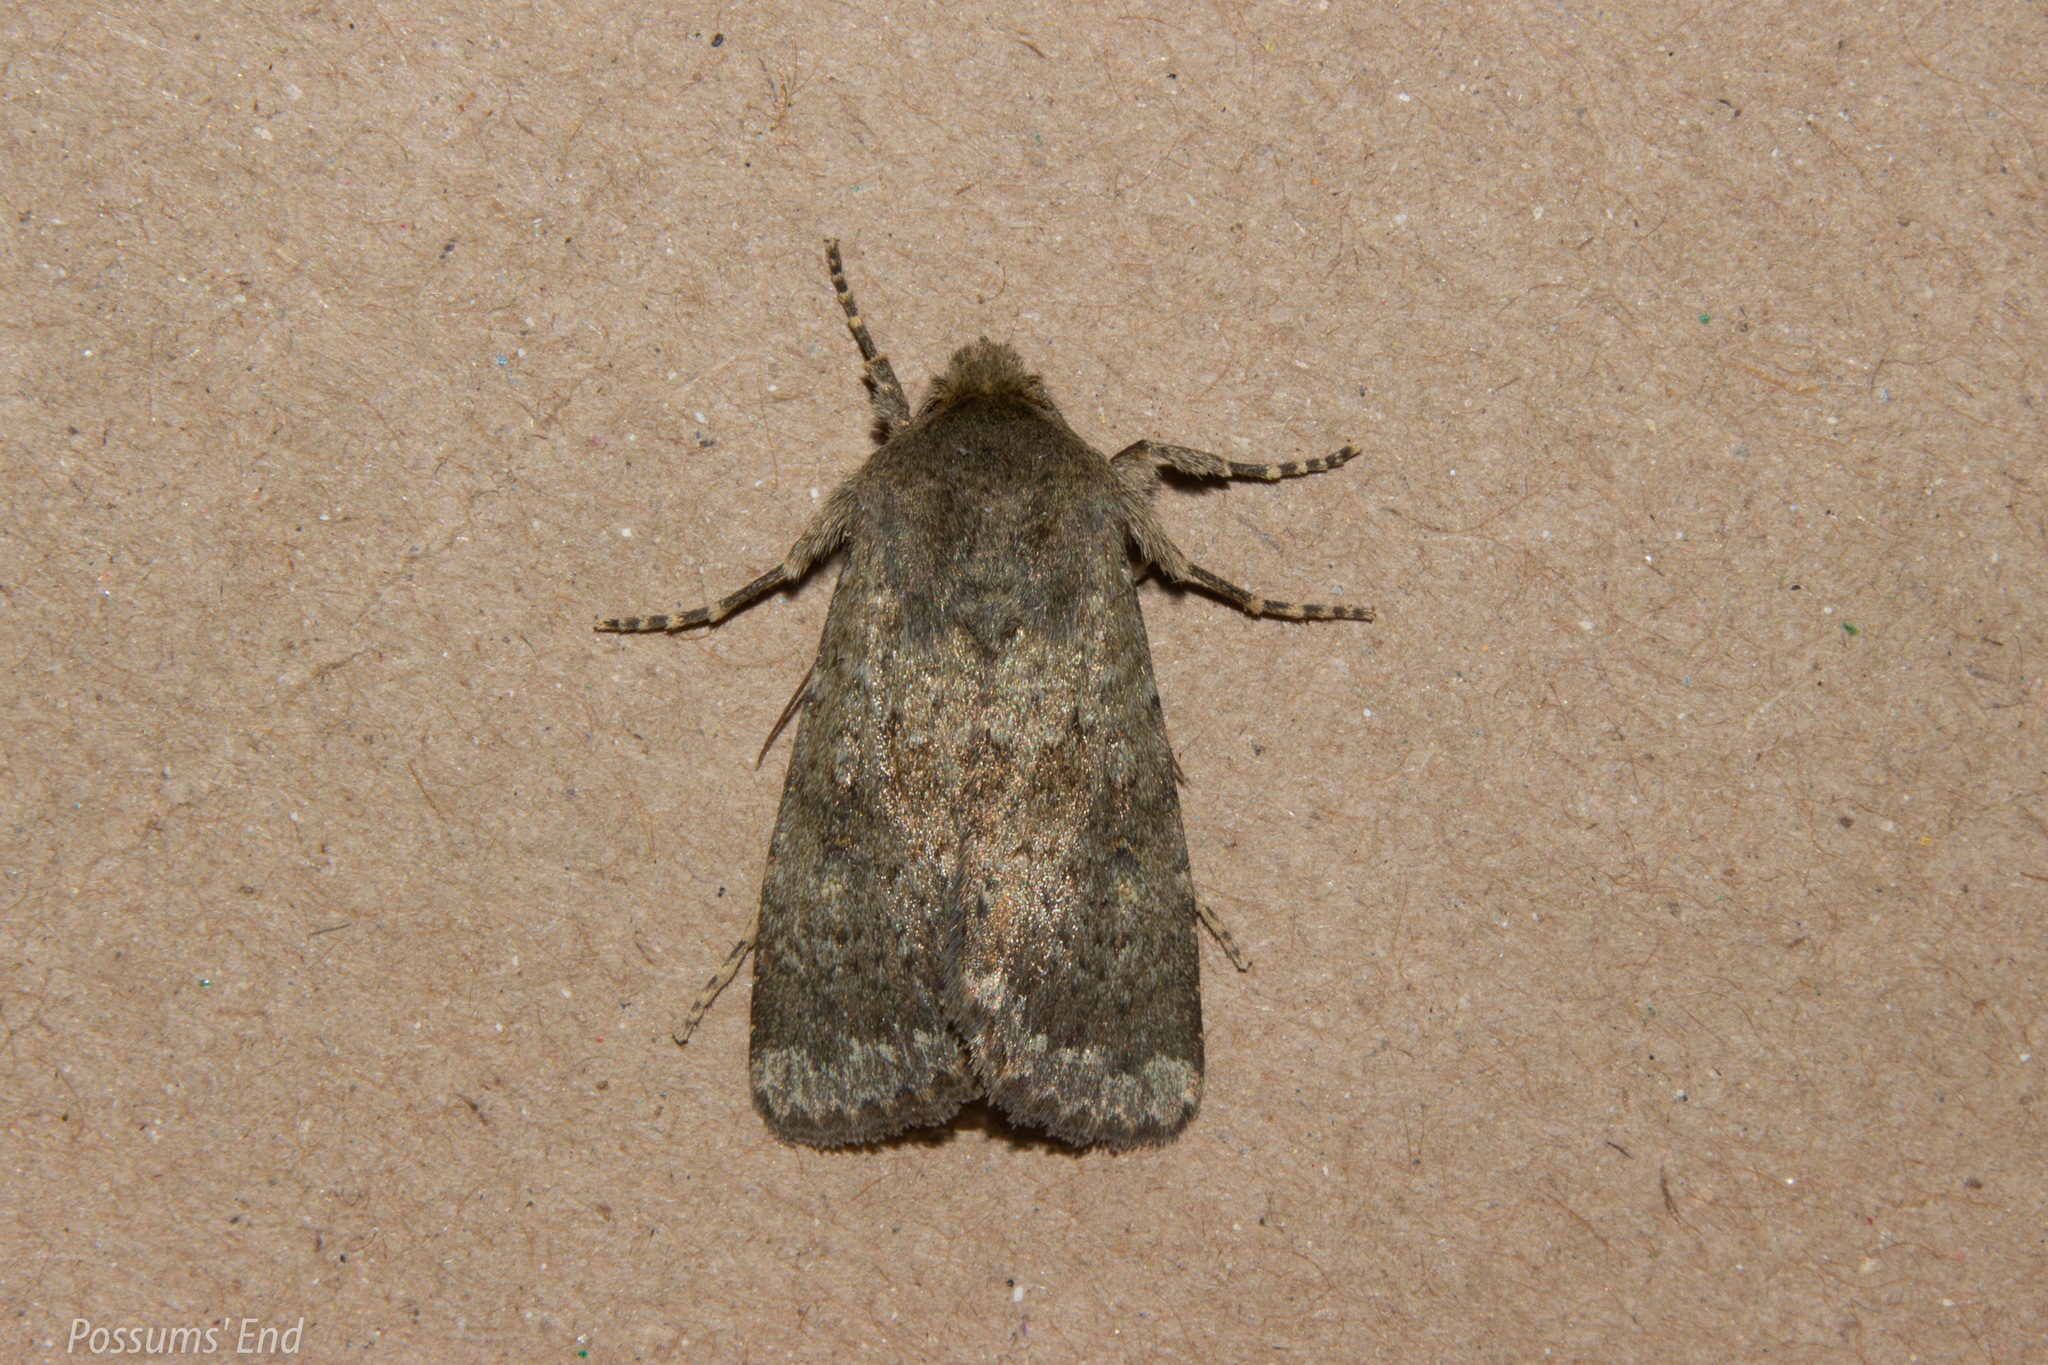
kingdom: Animalia
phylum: Arthropoda
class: Insecta
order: Lepidoptera
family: Noctuidae
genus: Ichneutica
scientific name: Ichneutica moderata
